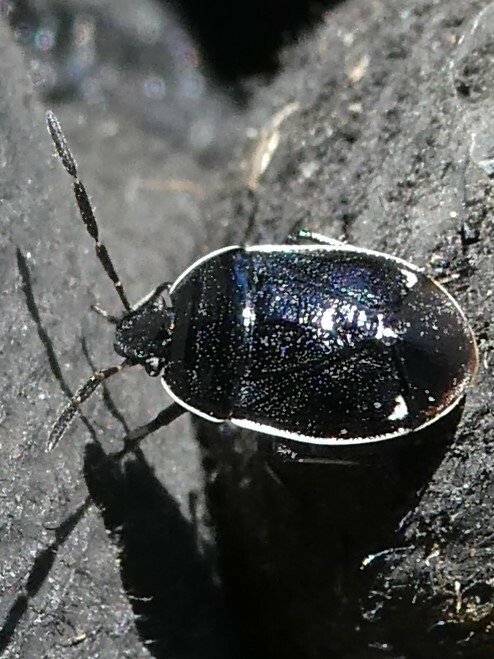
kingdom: Animalia
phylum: Arthropoda
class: Insecta
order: Hemiptera
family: Cydnidae
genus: Sehirus
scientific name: Sehirus cinctus
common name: White-margined burrower bug
